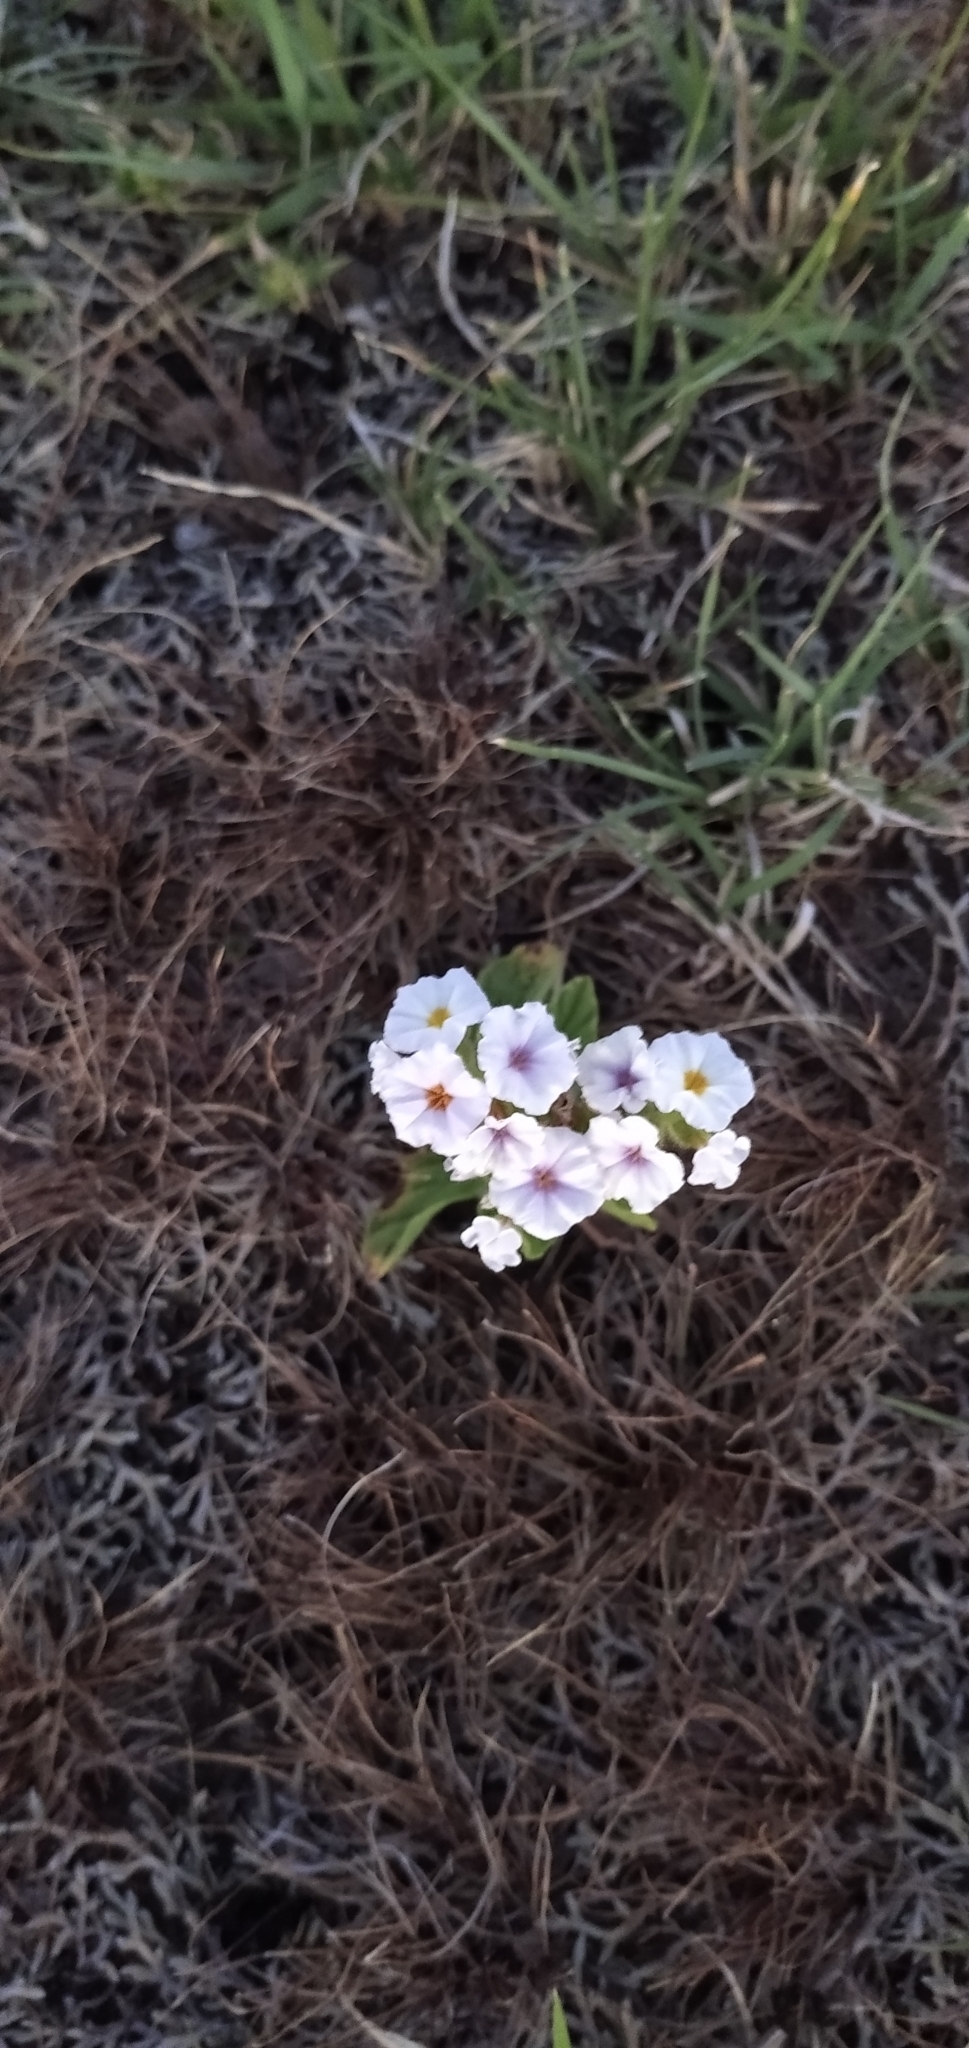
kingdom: Plantae
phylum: Tracheophyta
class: Magnoliopsida
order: Boraginales
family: Heliotropiaceae
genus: Heliotropium
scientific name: Heliotropium amplexicaule
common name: Clasping heliotrope
